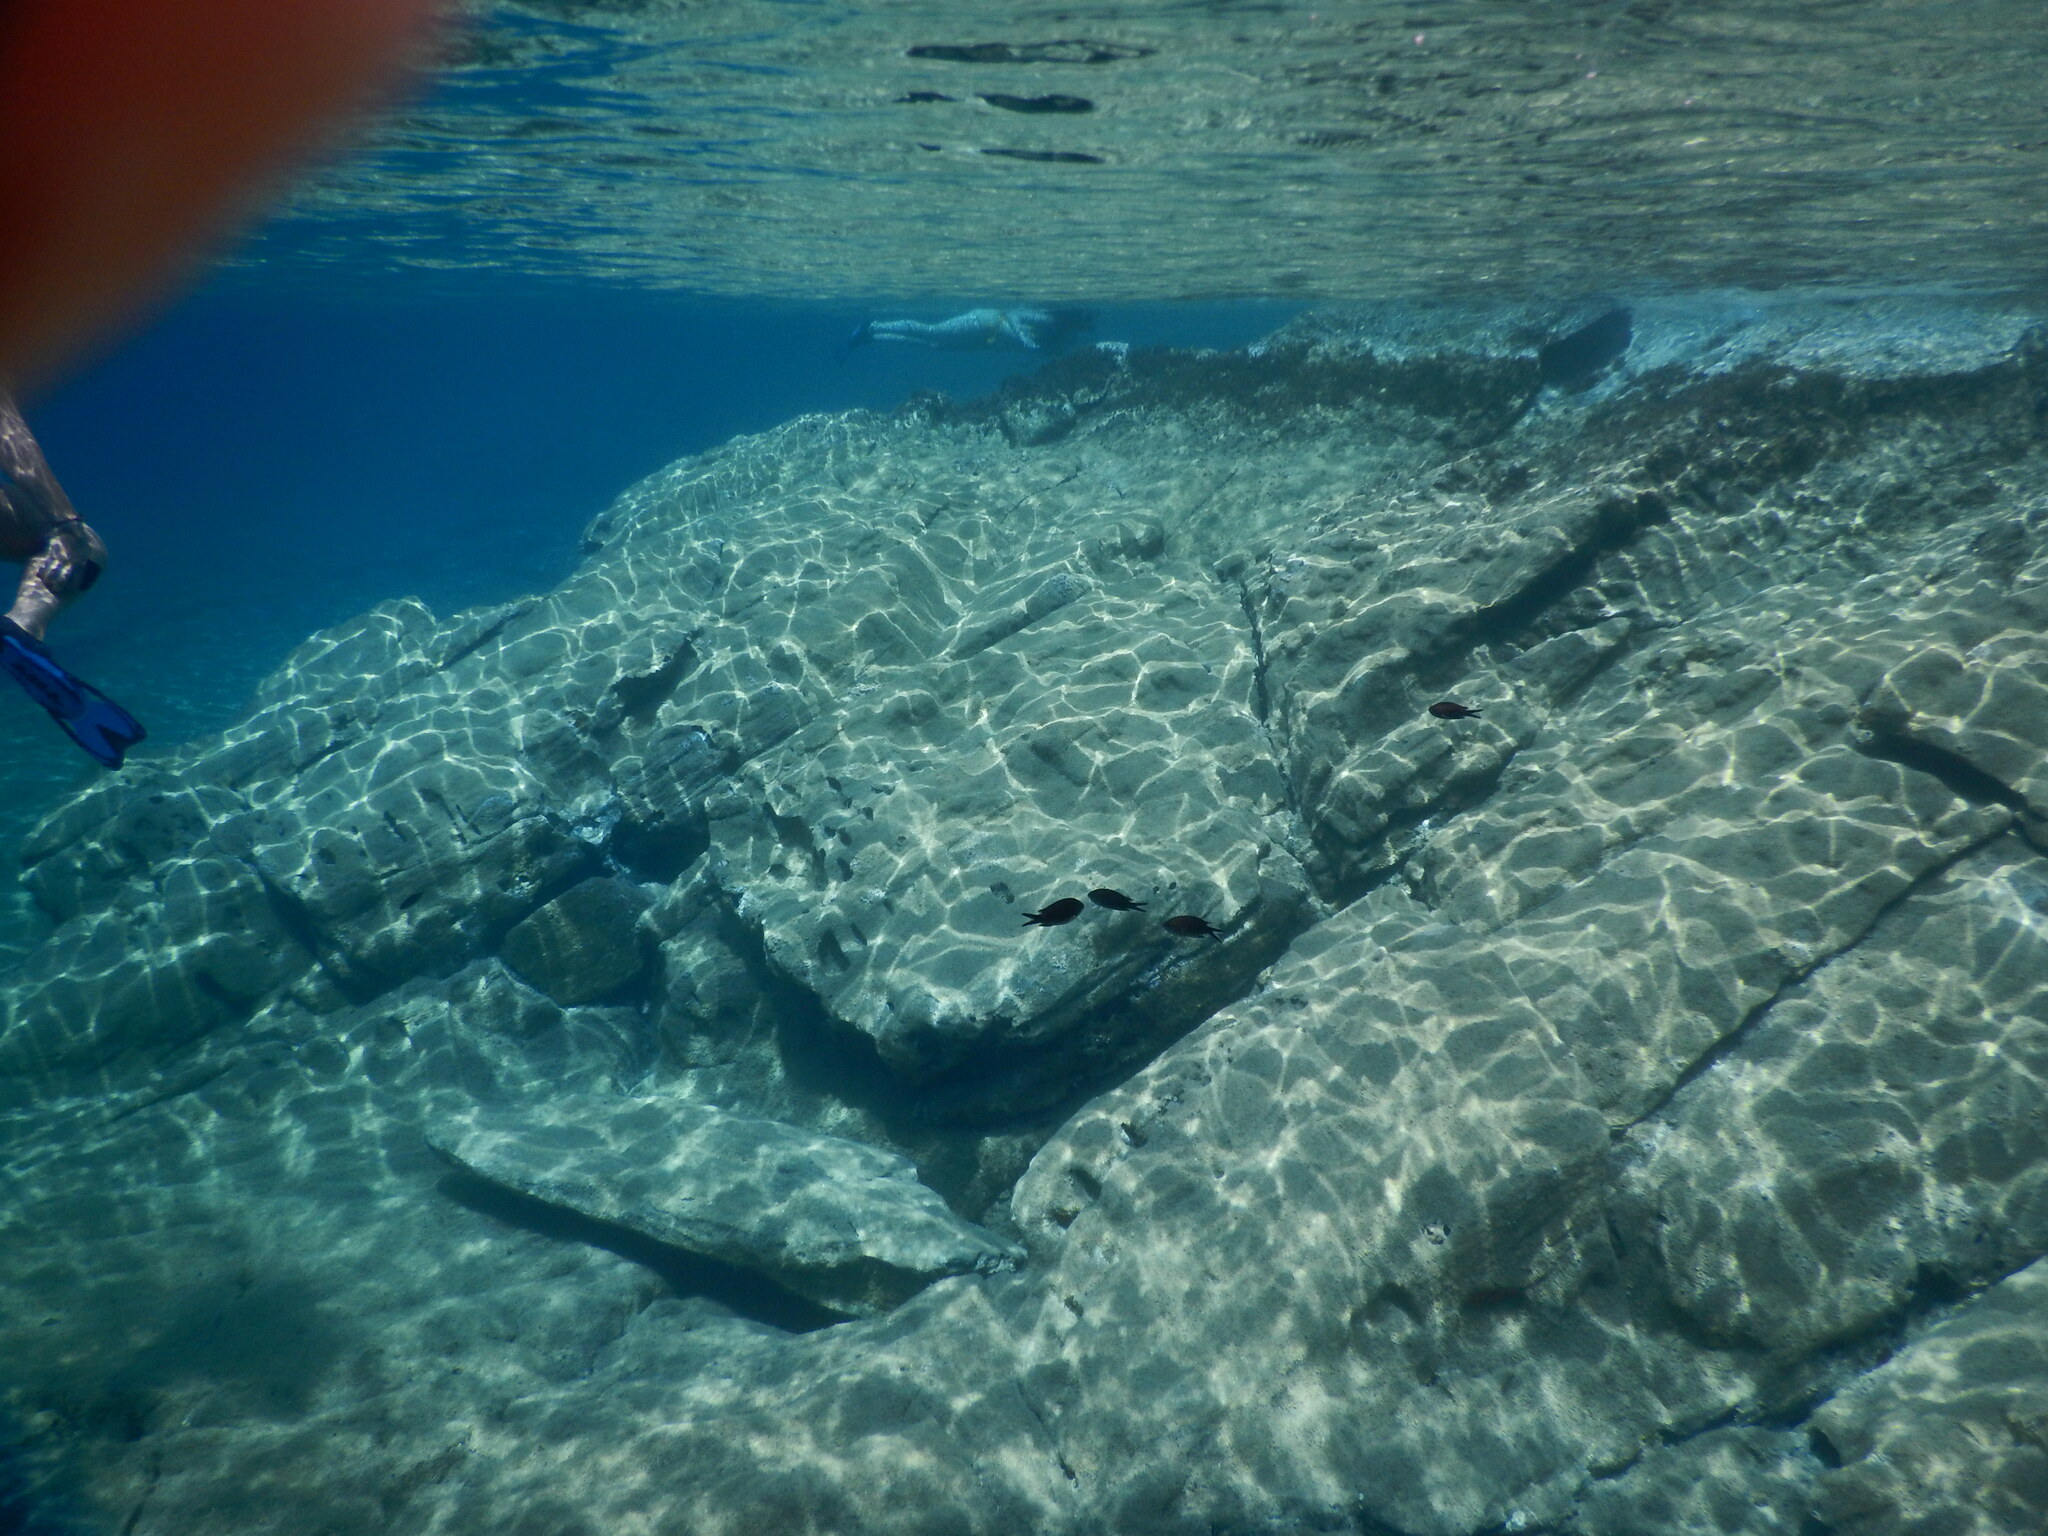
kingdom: Animalia
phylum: Chordata
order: Perciformes
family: Pomacentridae
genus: Chromis
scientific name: Chromis chromis
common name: Damselfish
